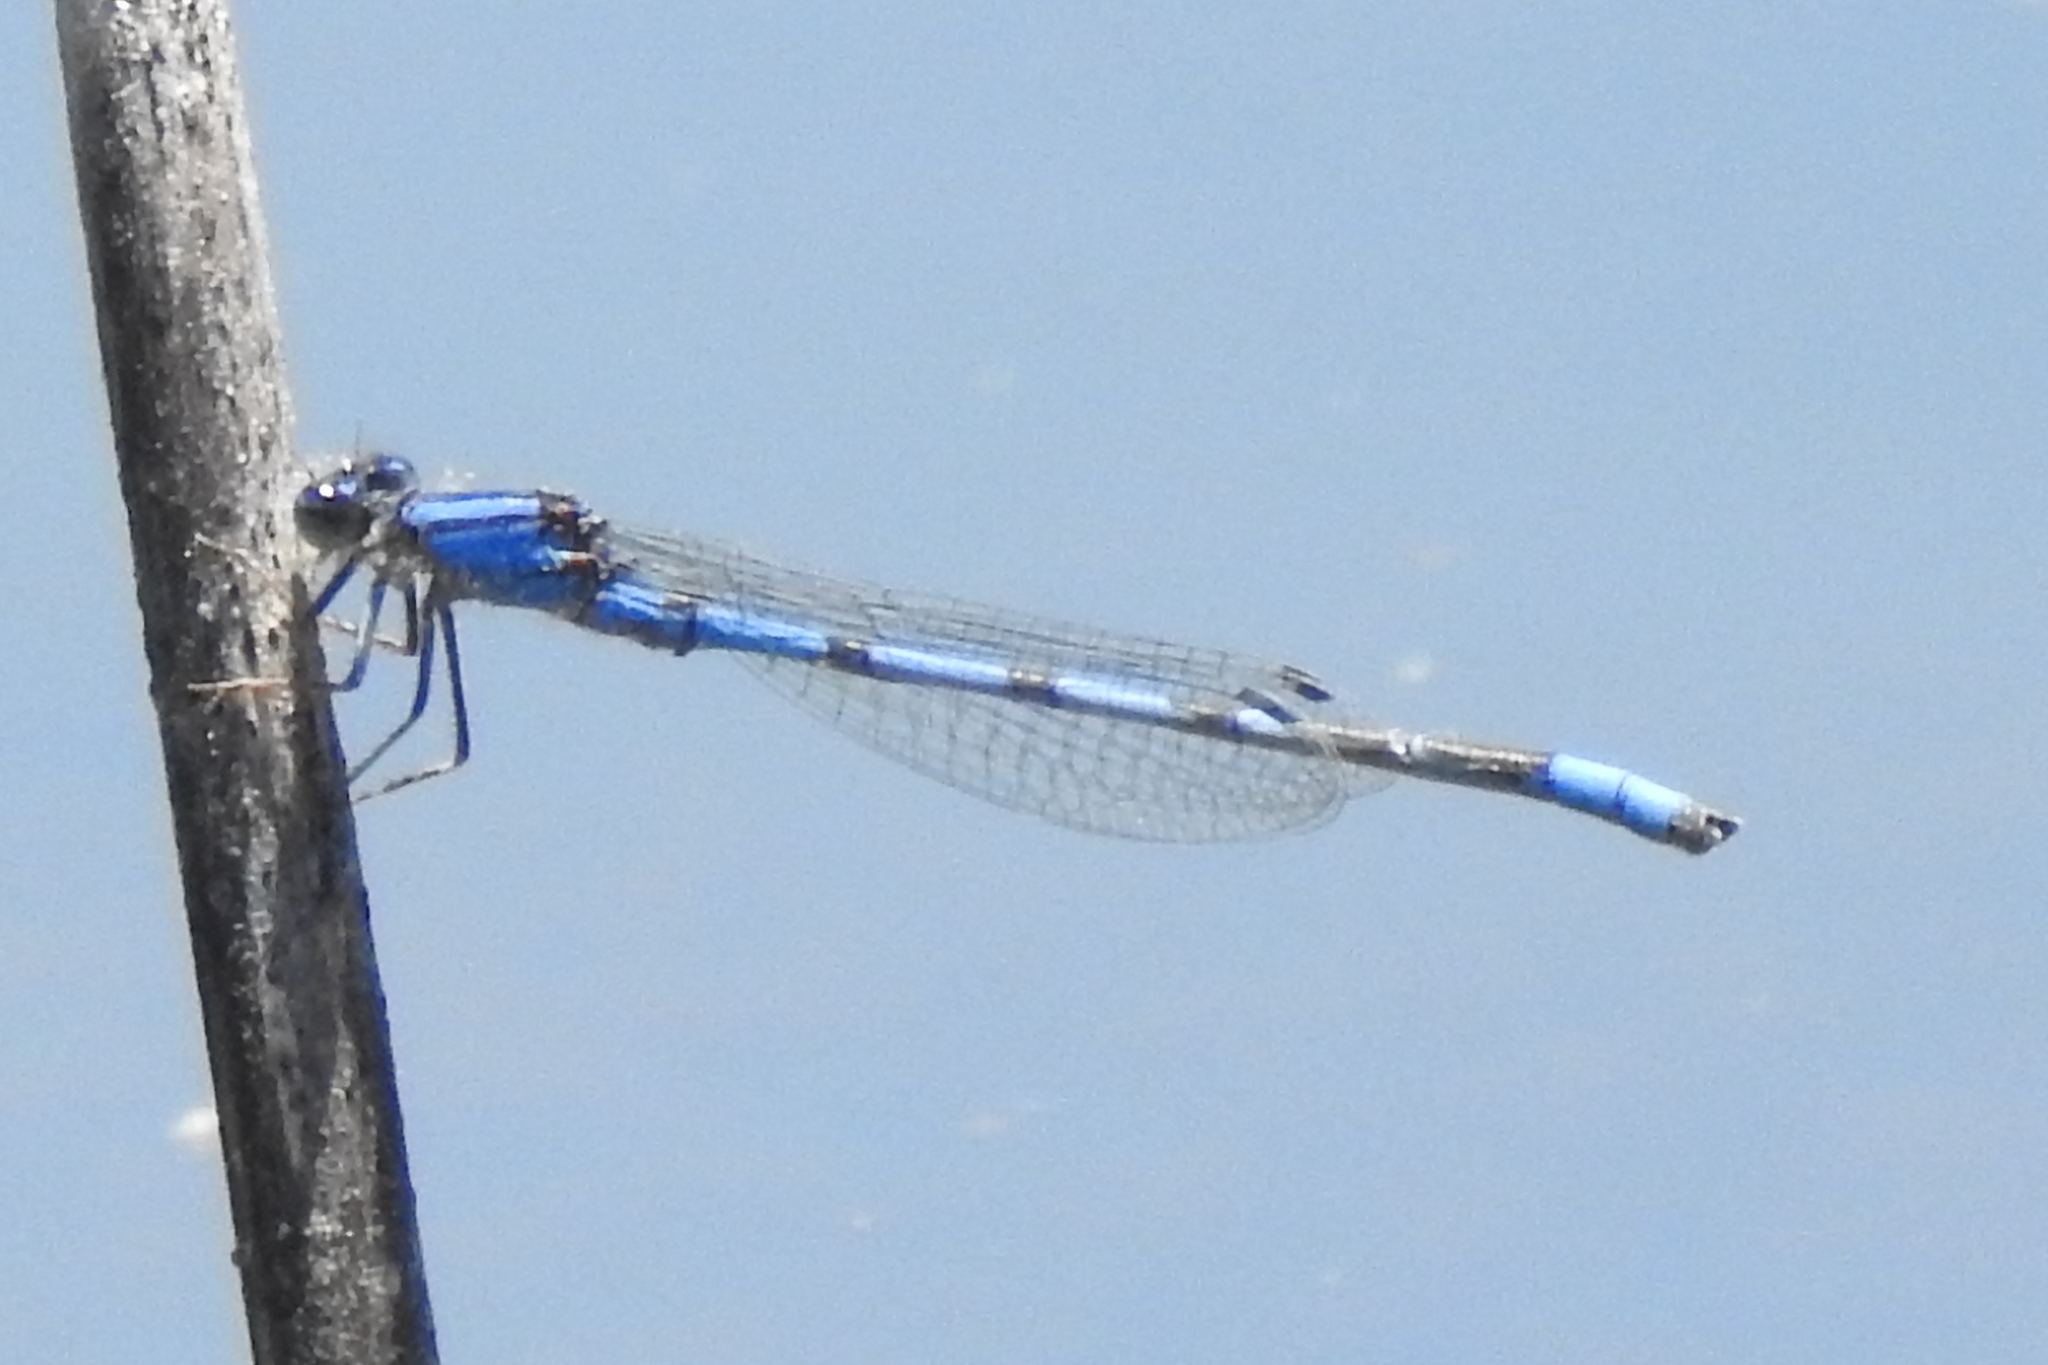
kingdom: Animalia
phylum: Arthropoda
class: Insecta
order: Odonata
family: Coenagrionidae
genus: Enallagma
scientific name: Enallagma civile
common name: Damselfly
